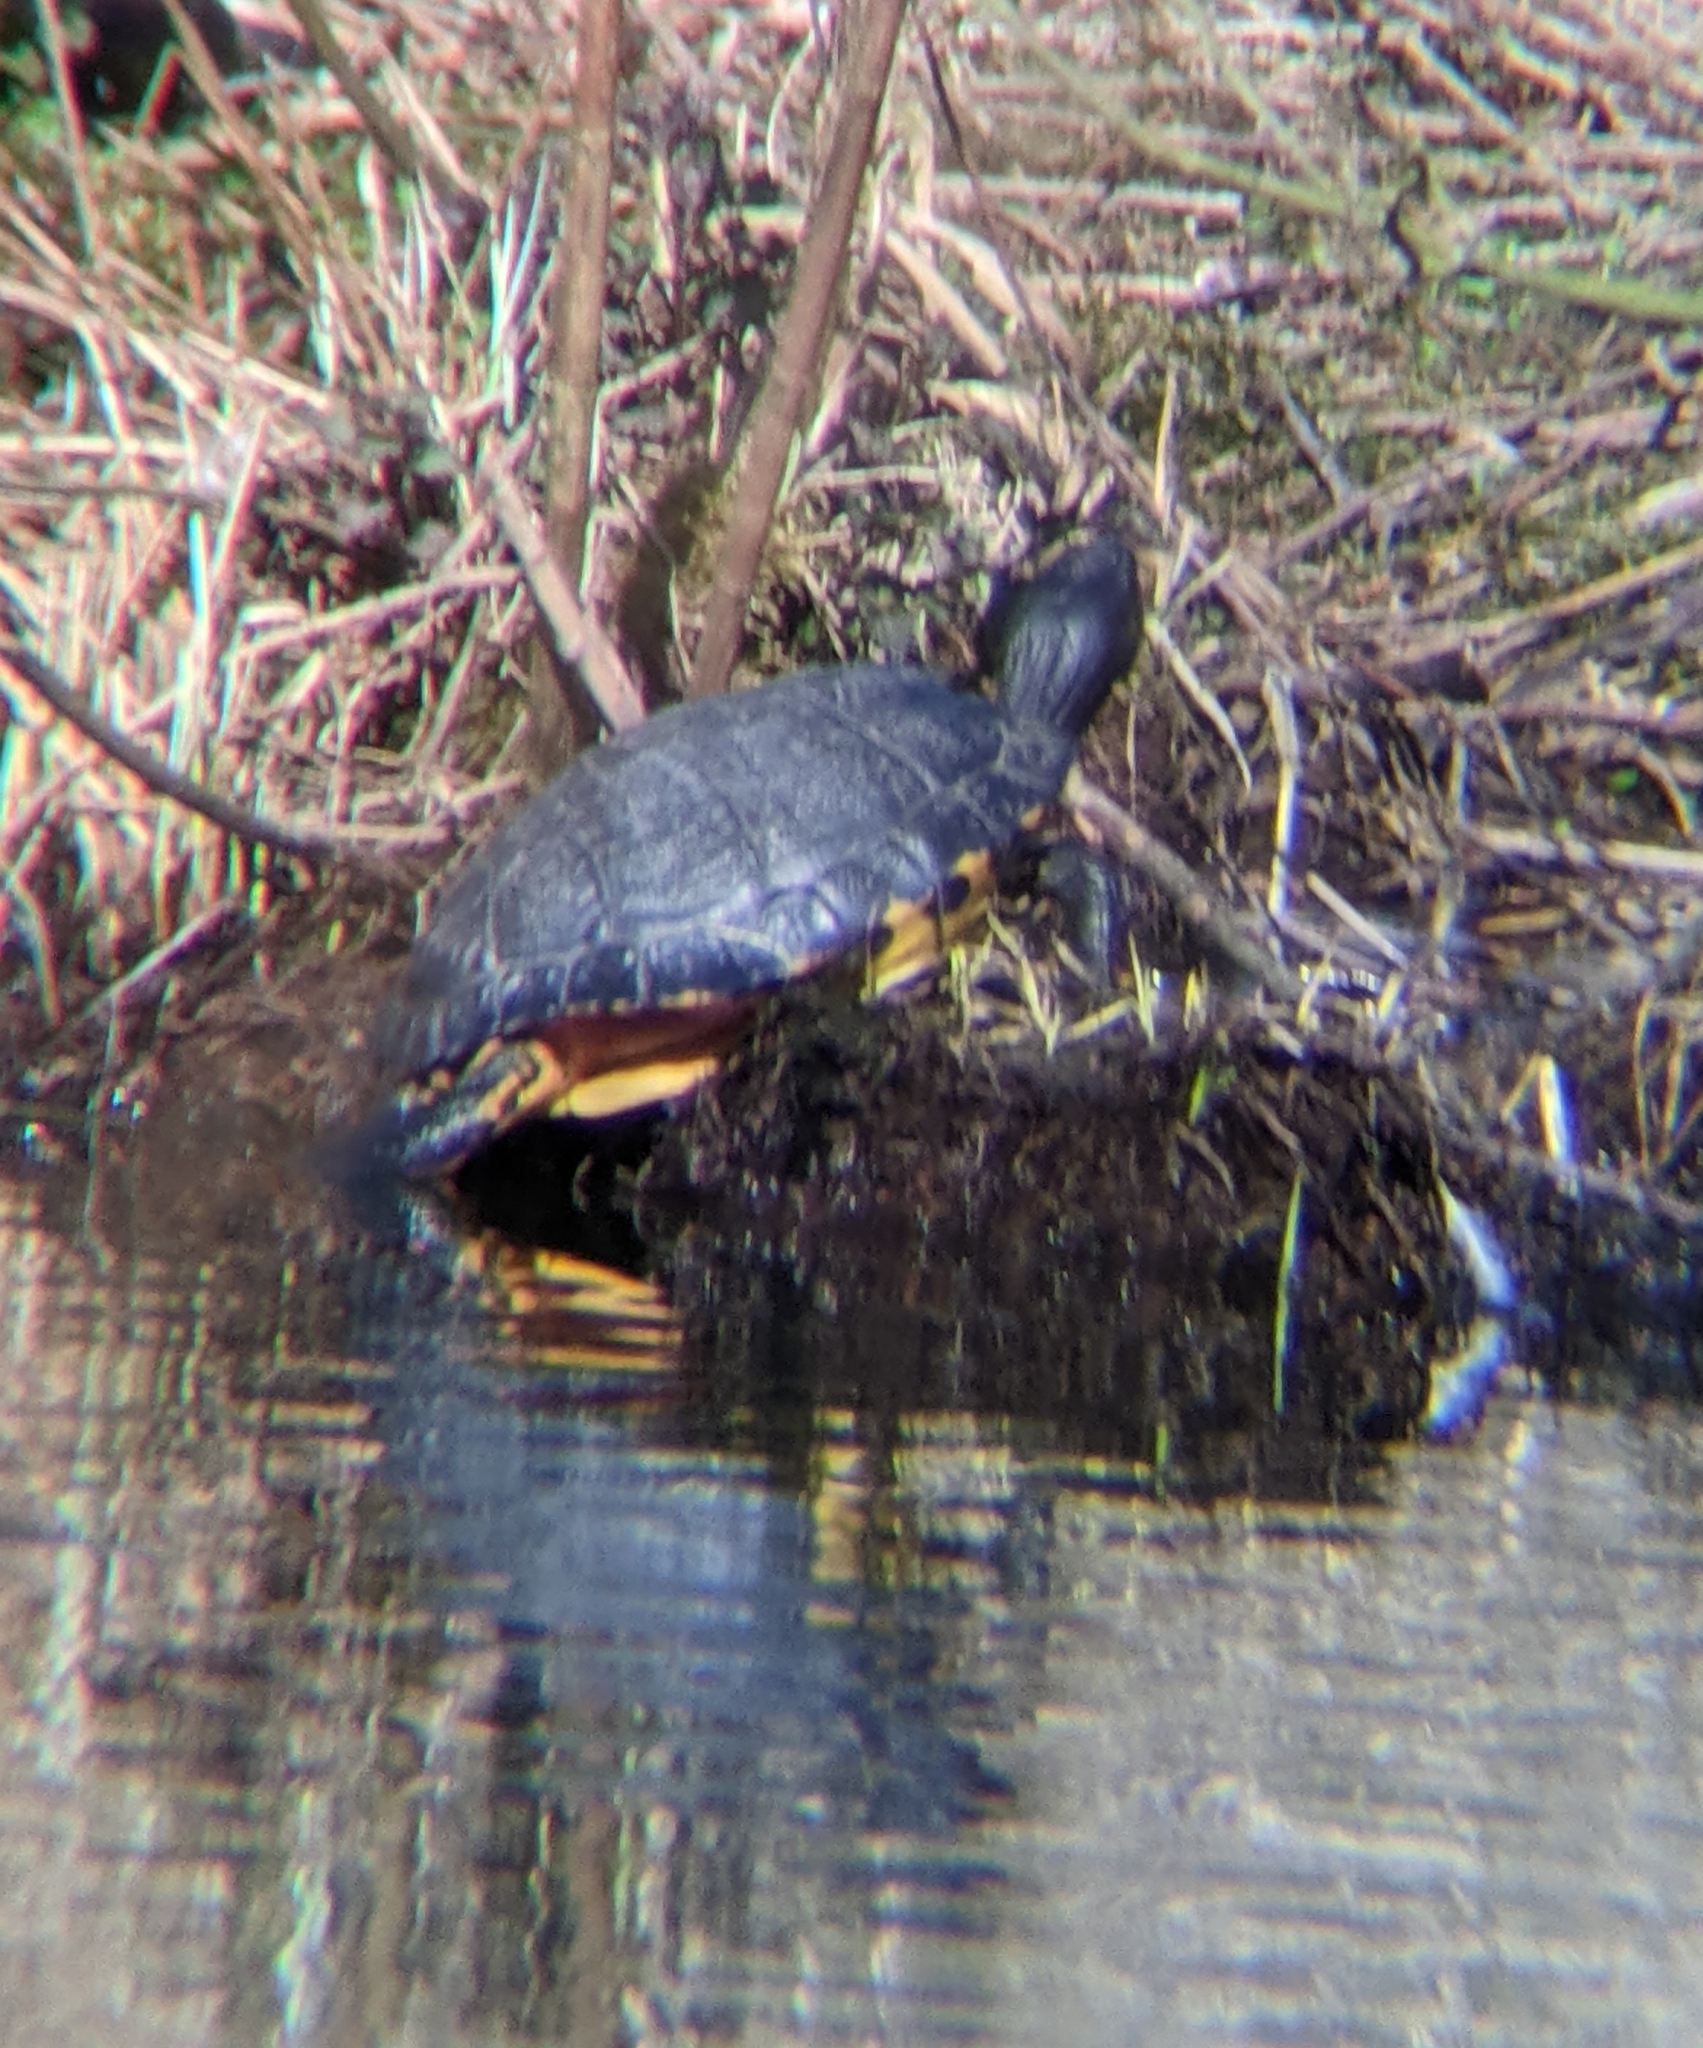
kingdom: Animalia
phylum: Chordata
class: Testudines
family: Emydidae
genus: Trachemys
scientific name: Trachemys scripta
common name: Slider
